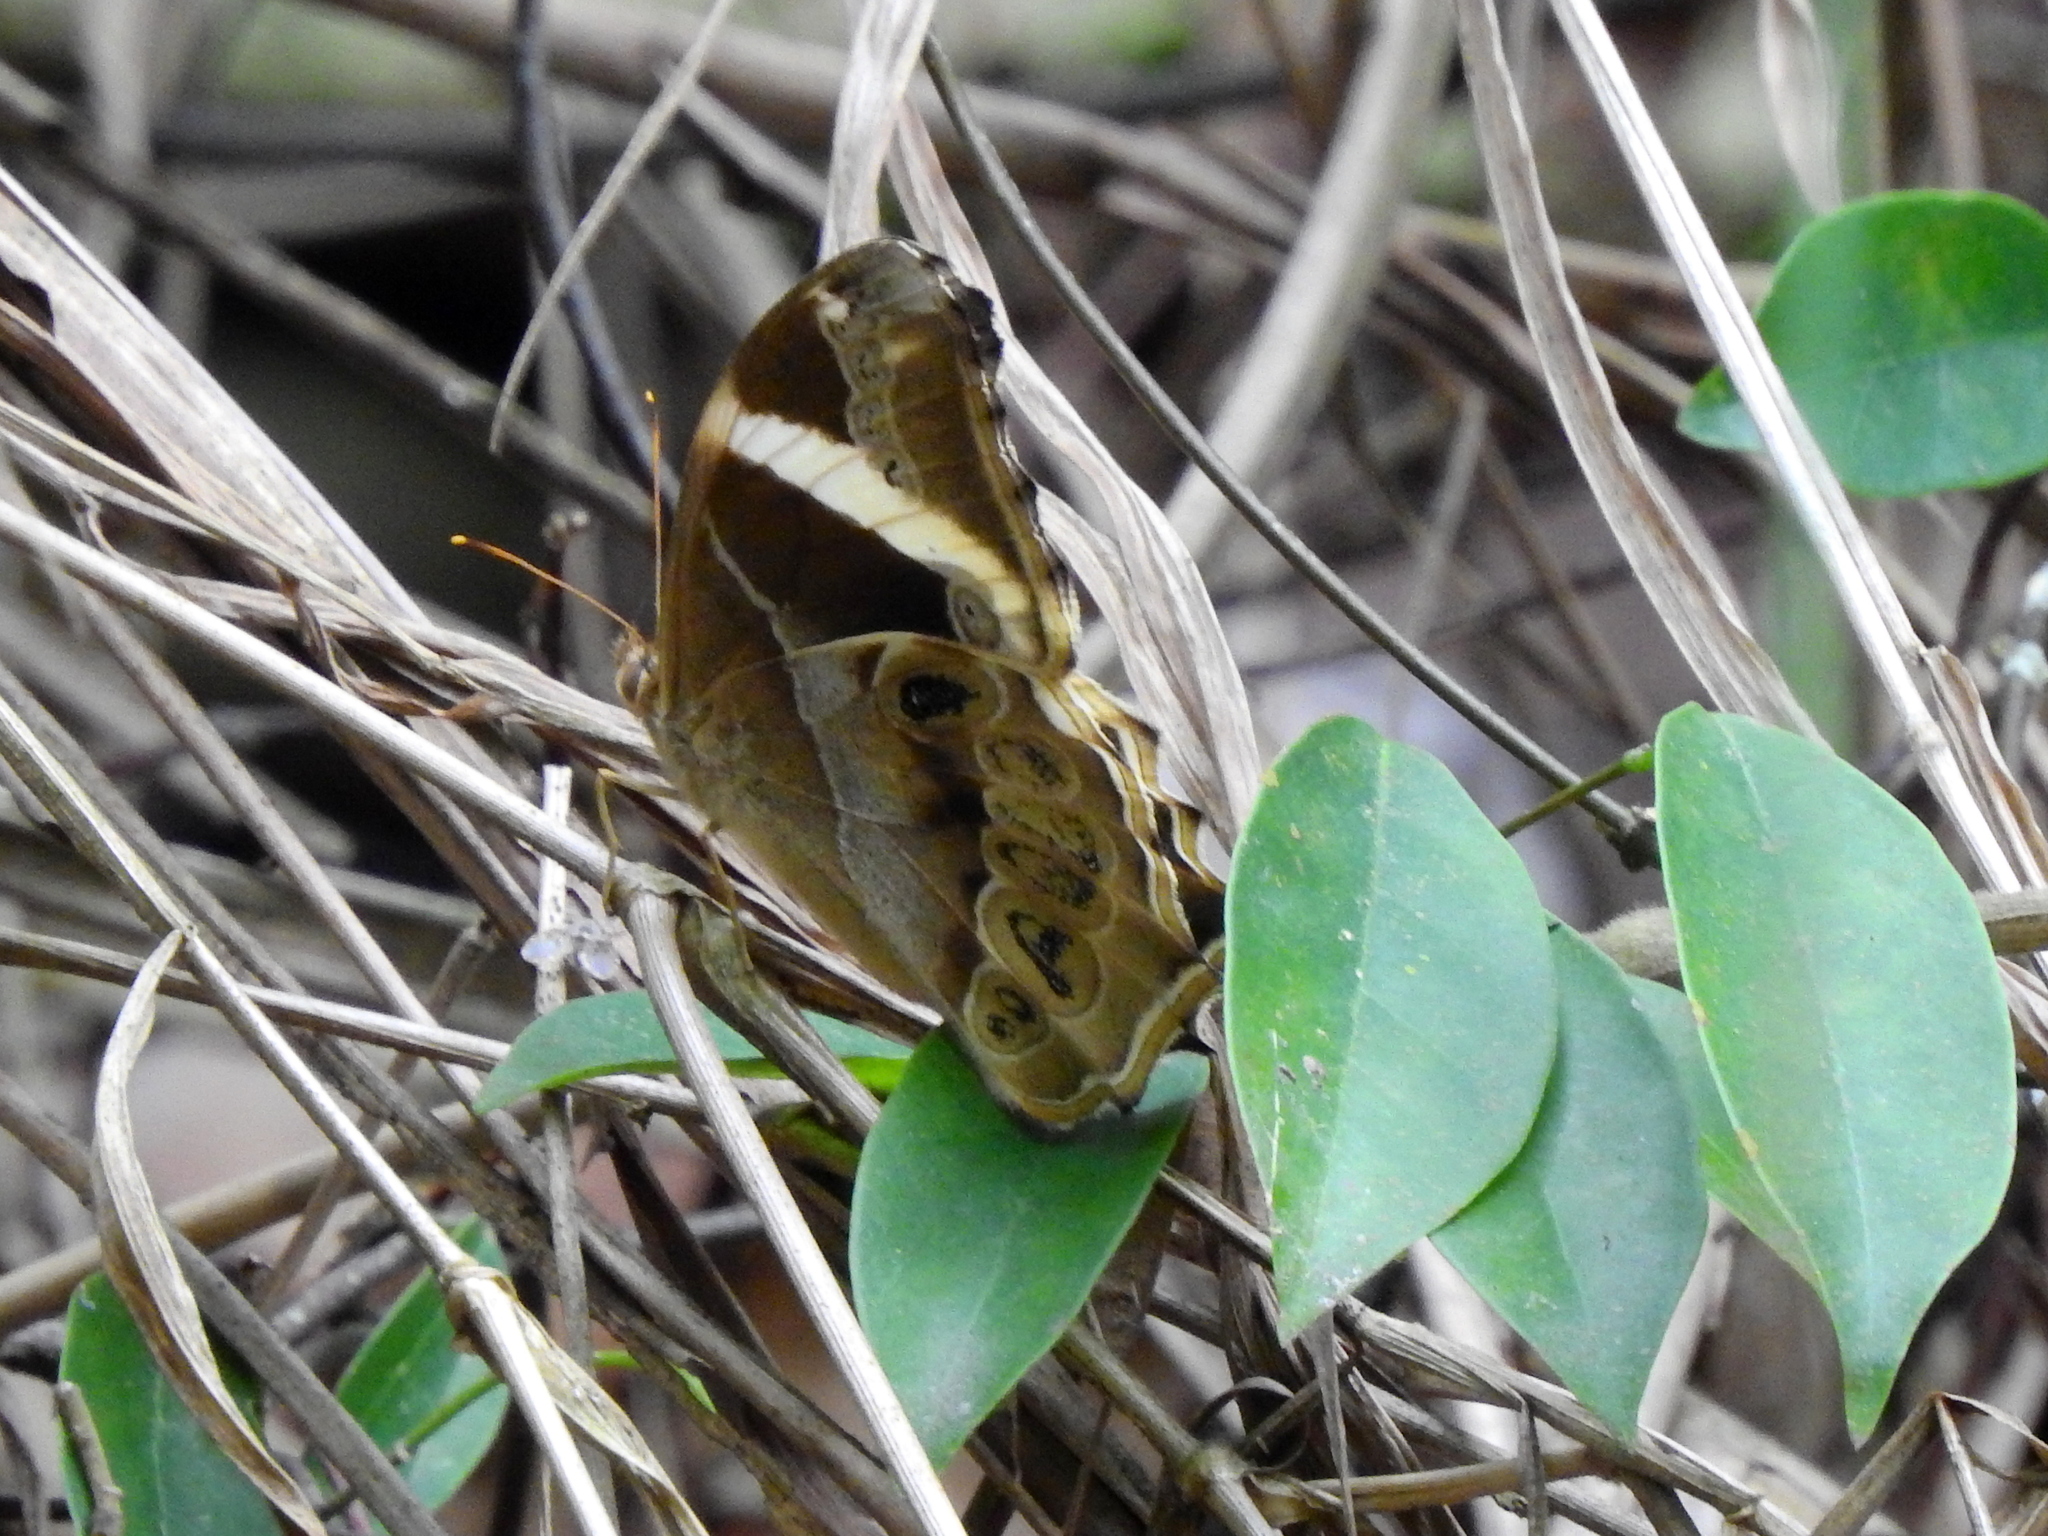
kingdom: Animalia
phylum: Arthropoda
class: Insecta
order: Lepidoptera
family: Nymphalidae
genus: Lethe
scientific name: Lethe europa
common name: Bamboo treebrown
